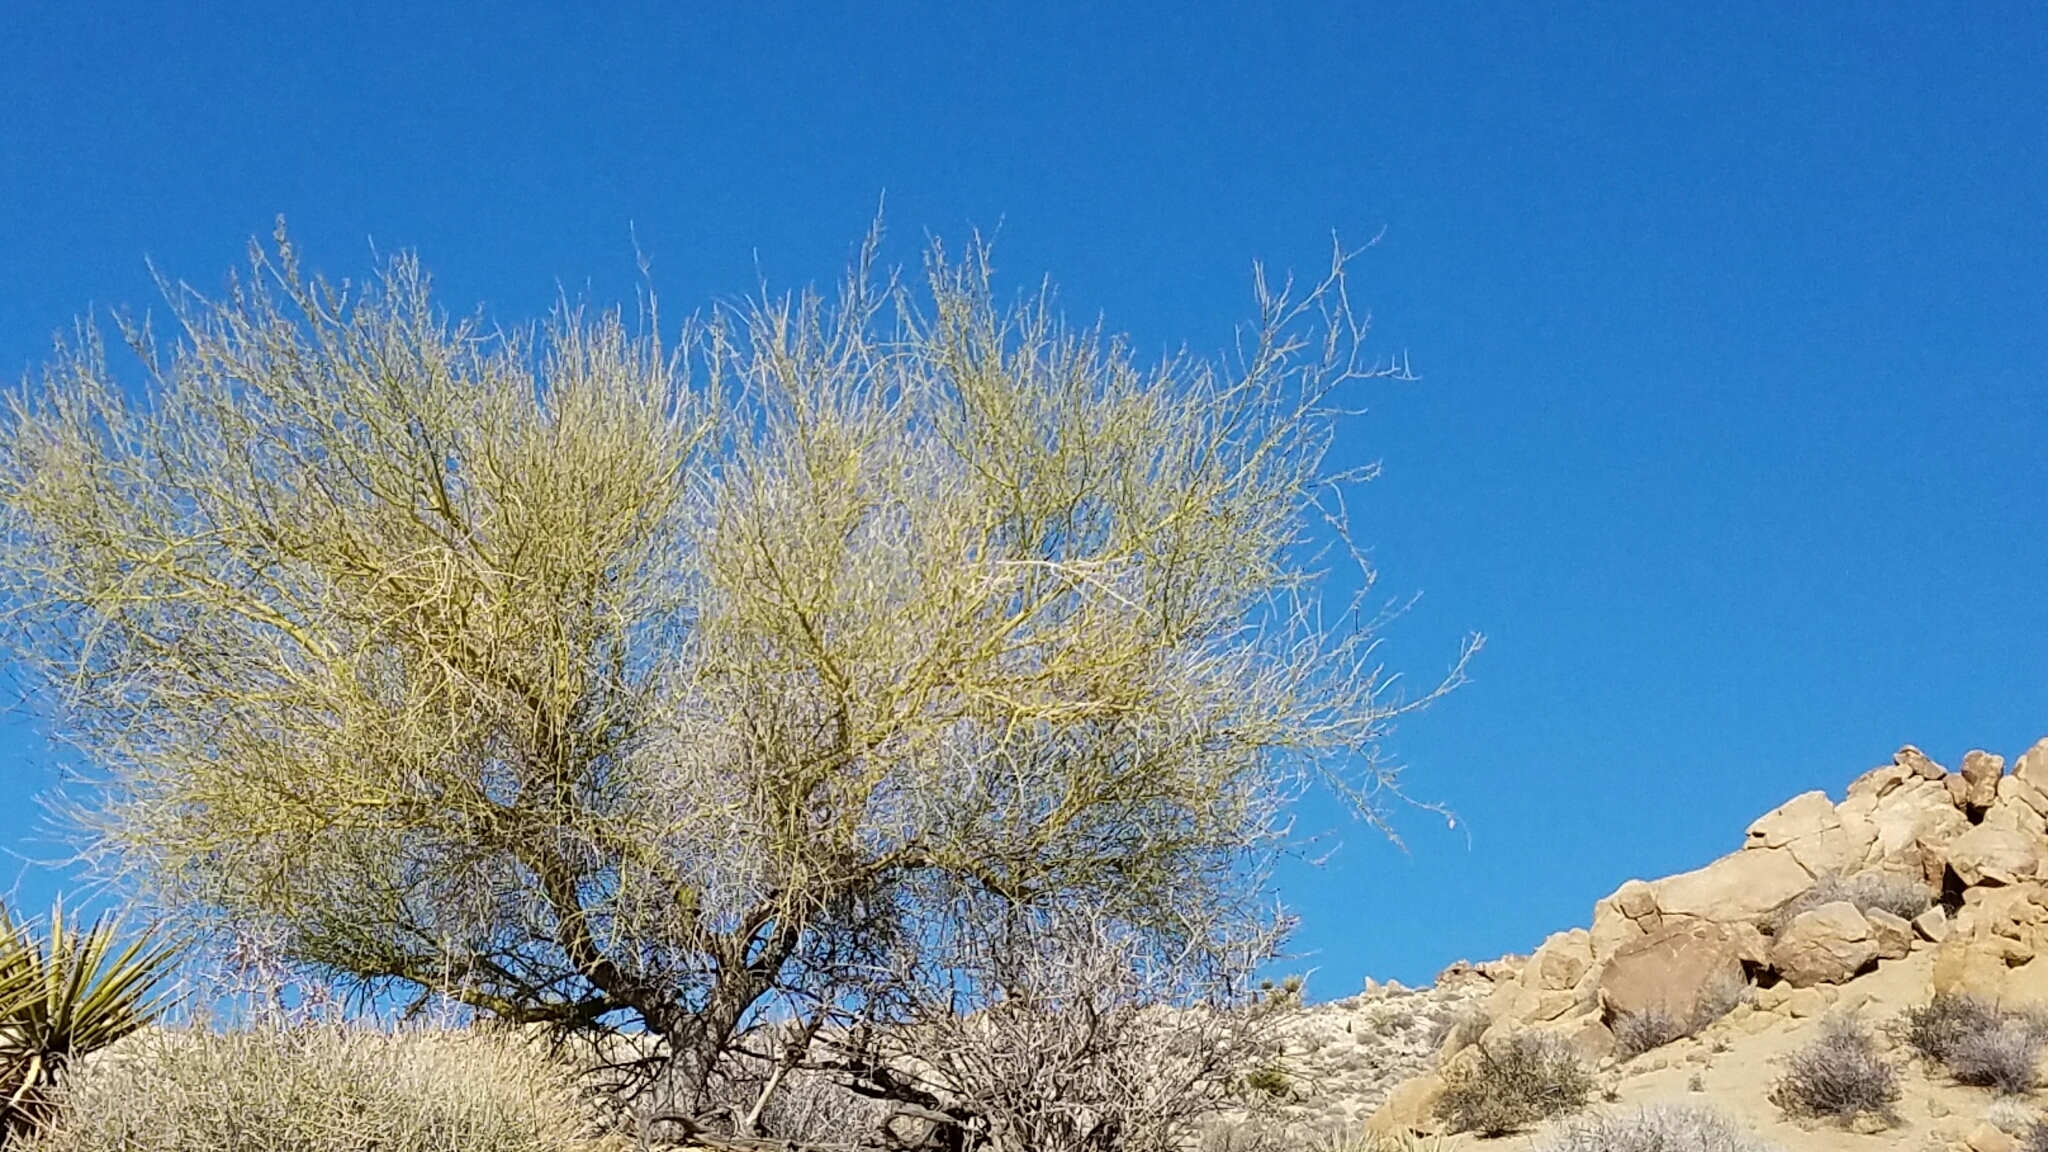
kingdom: Plantae
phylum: Tracheophyta
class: Magnoliopsida
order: Fabales
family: Fabaceae
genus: Parkinsonia
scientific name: Parkinsonia florida
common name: Blue paloverde
